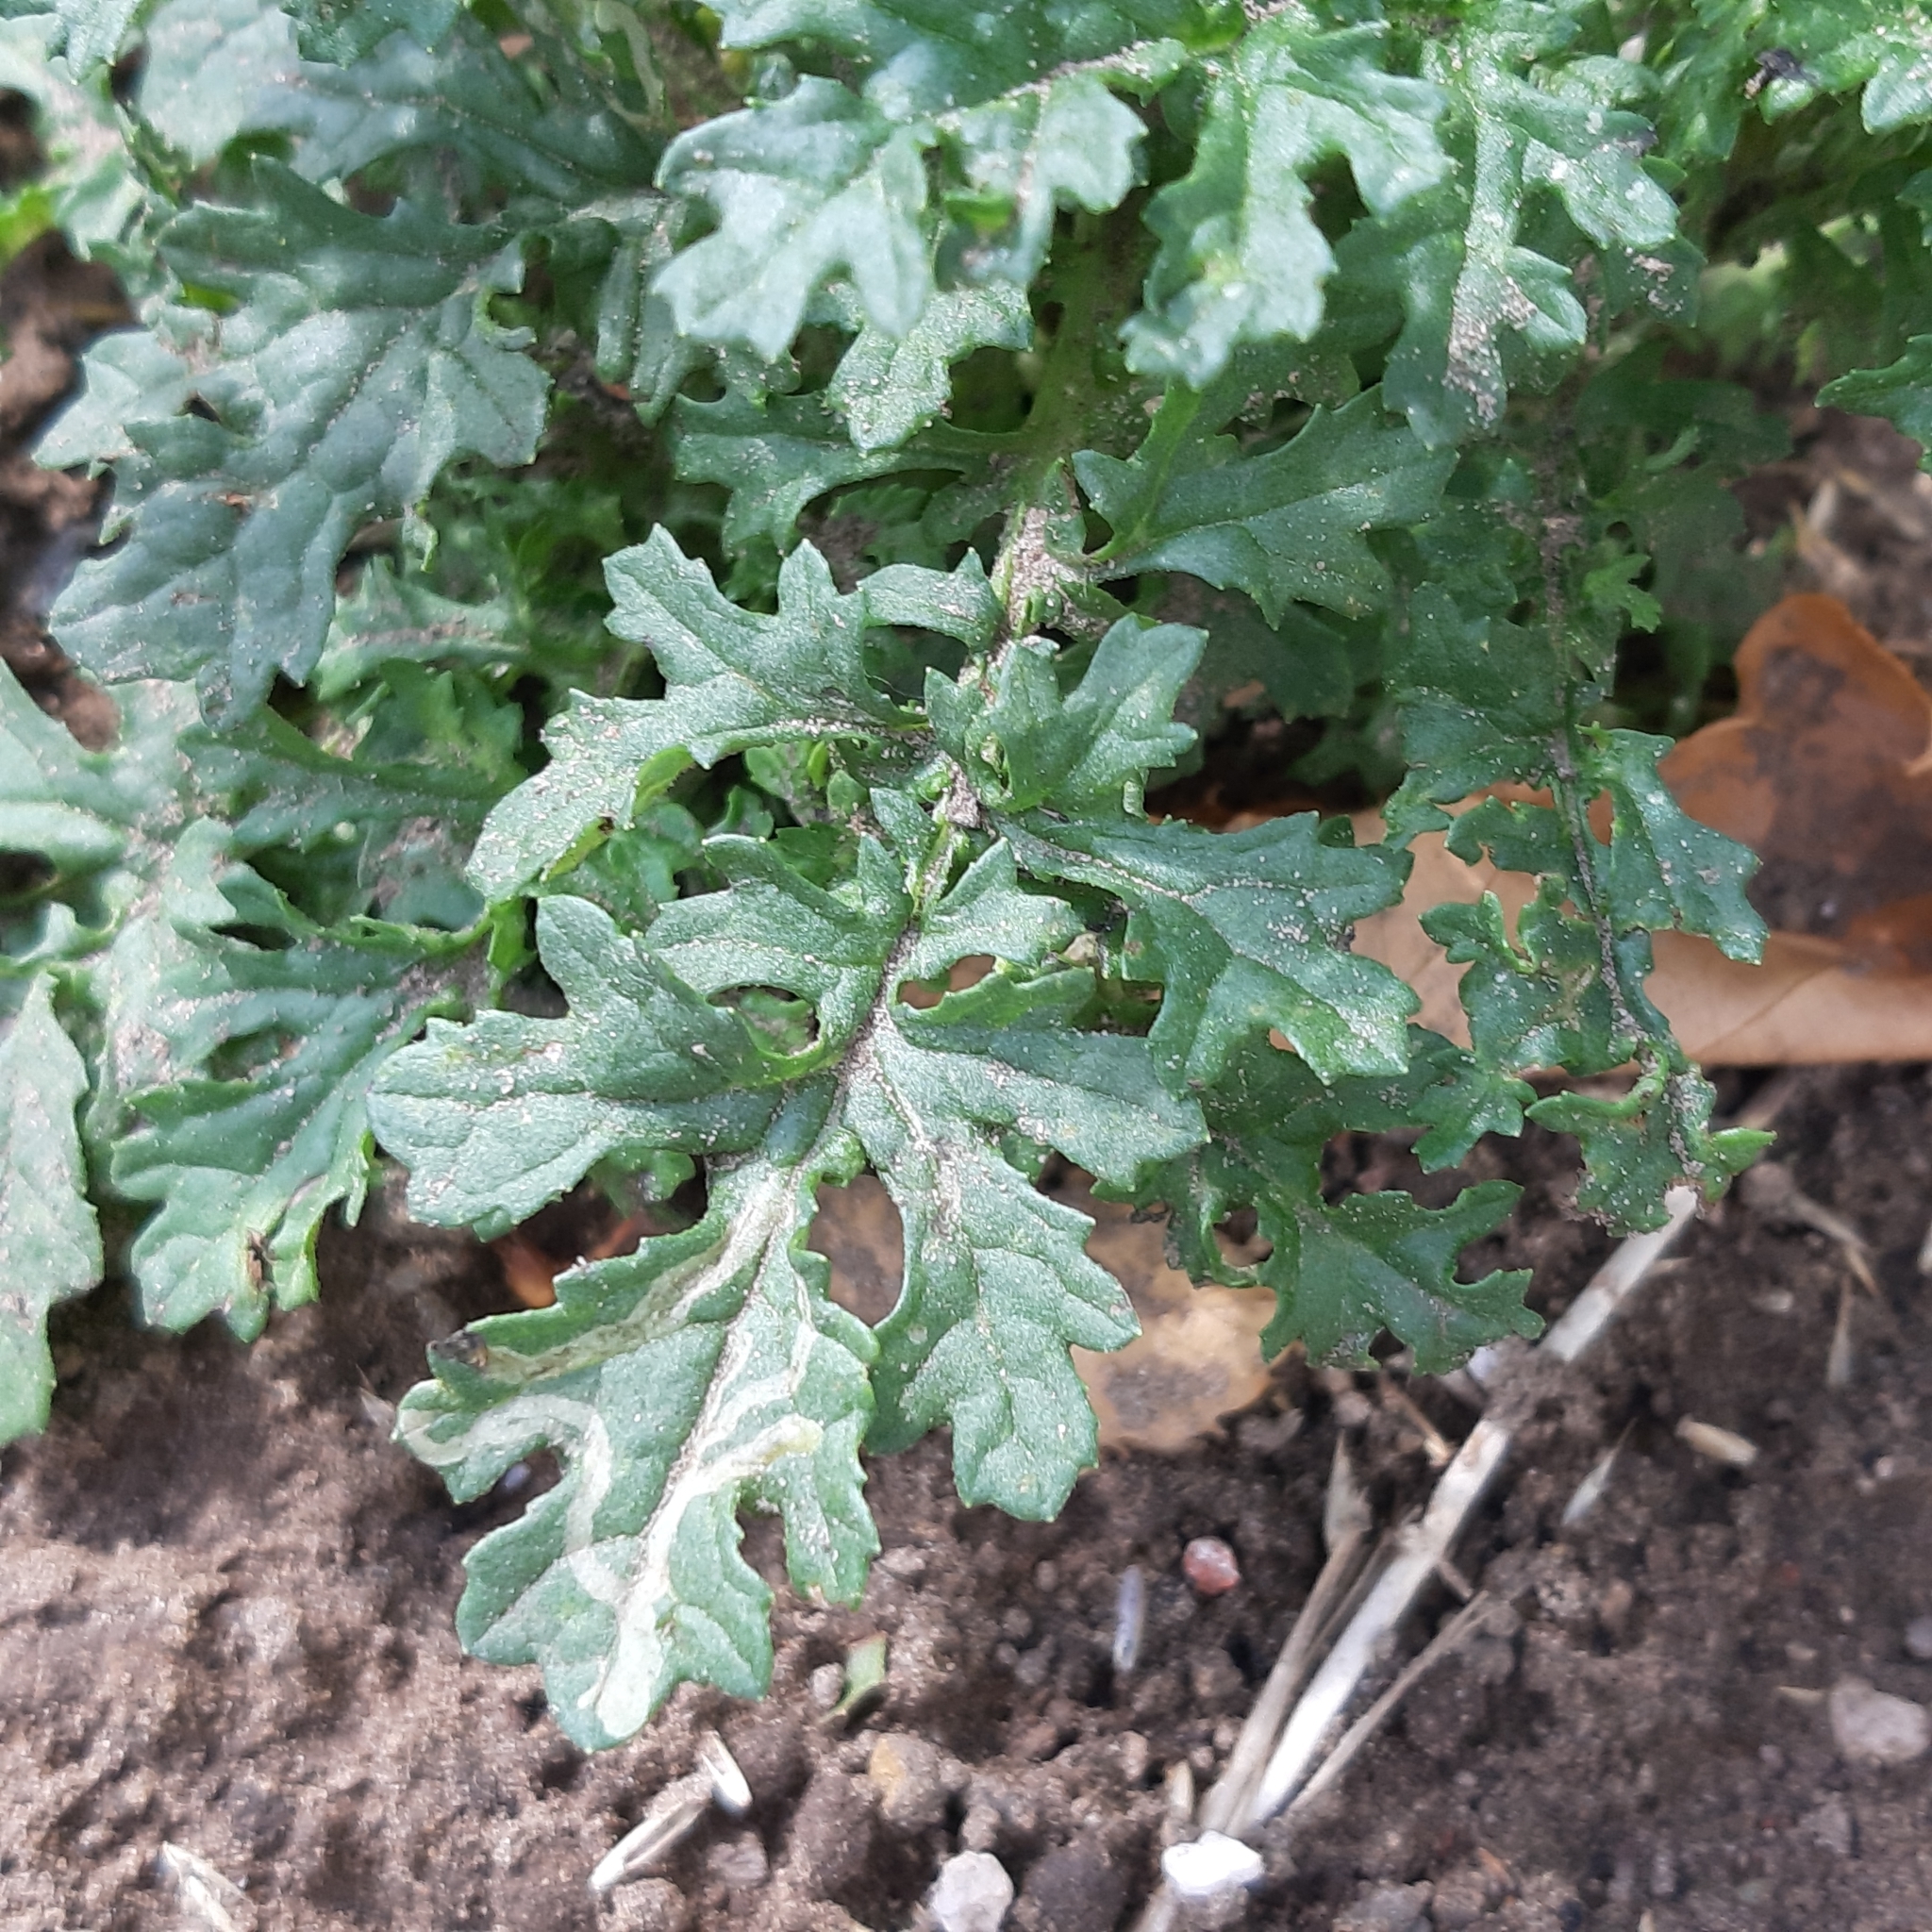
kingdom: Plantae
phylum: Tracheophyta
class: Magnoliopsida
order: Asterales
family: Asteraceae
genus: Jacobaea
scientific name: Jacobaea vulgaris
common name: Stinking willie
